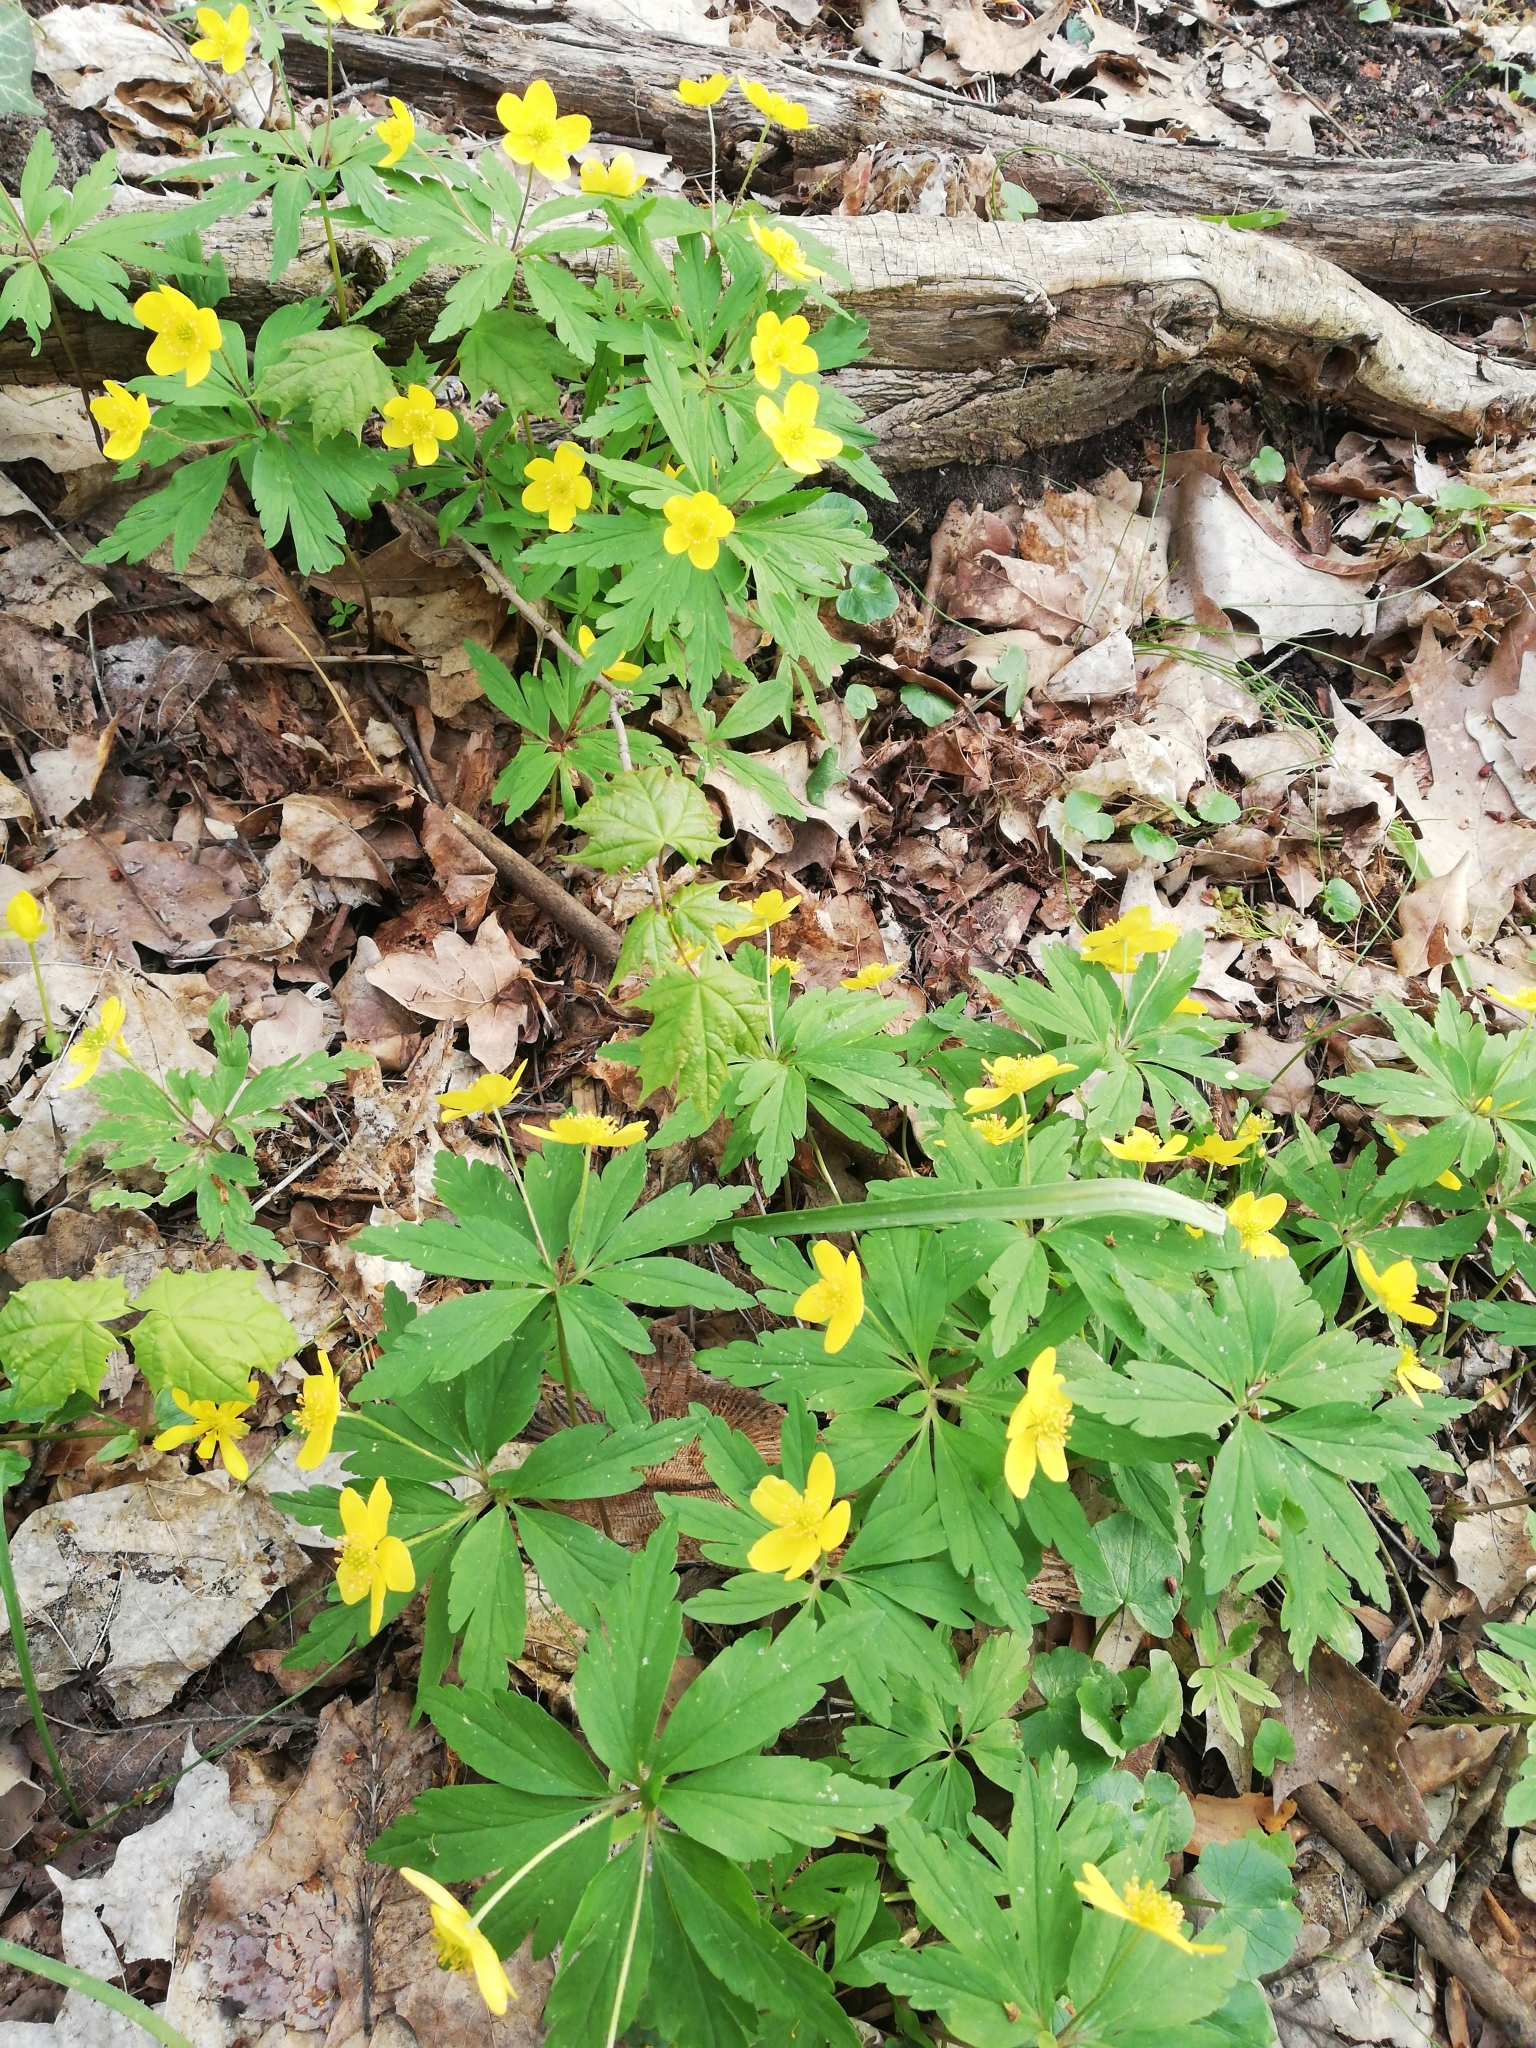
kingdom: Plantae
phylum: Tracheophyta
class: Magnoliopsida
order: Ranunculales
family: Ranunculaceae
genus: Anemone
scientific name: Anemone ranunculoides
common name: Yellow anemone
